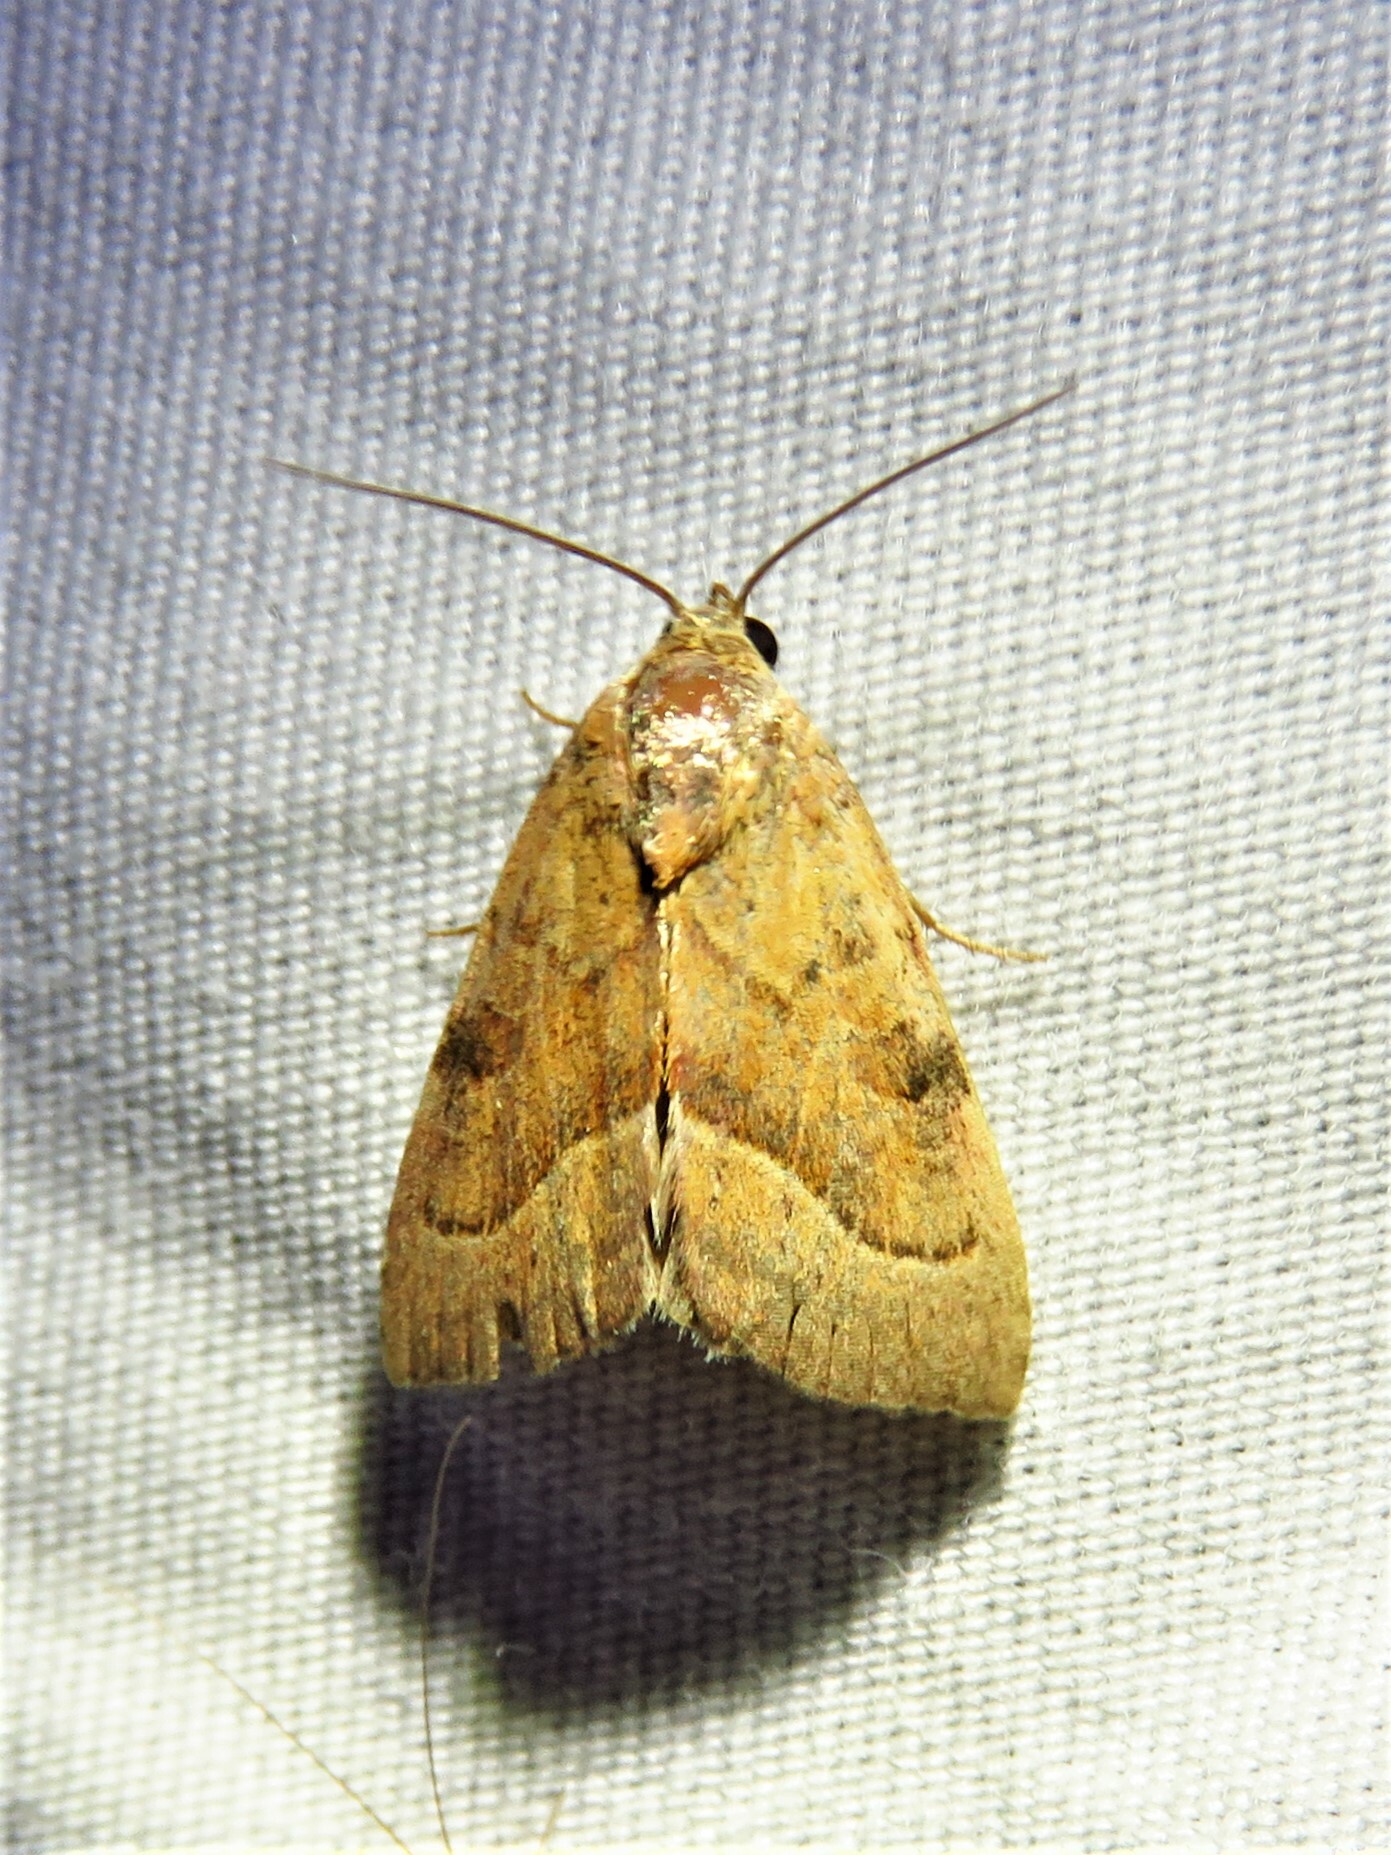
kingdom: Animalia
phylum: Arthropoda
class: Insecta
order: Lepidoptera
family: Noctuidae
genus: Galgula
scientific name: Galgula partita
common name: Wedgeling
